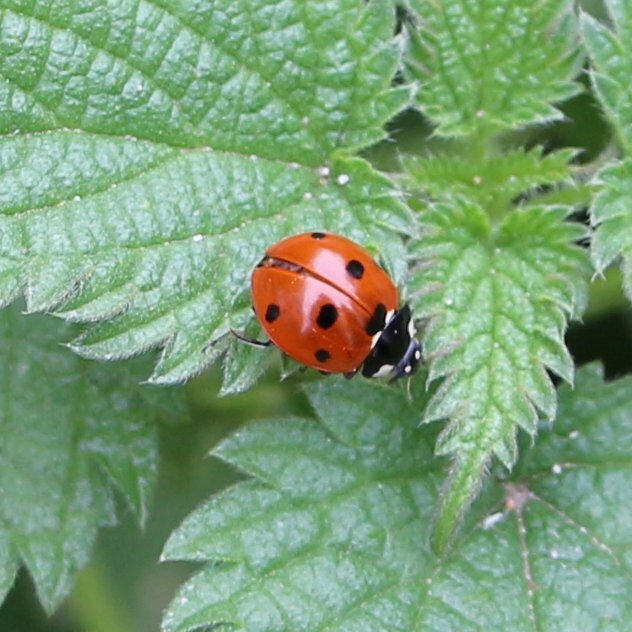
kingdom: Animalia
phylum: Arthropoda
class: Insecta
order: Coleoptera
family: Coccinellidae
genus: Coccinella
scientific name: Coccinella septempunctata
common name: Sevenspotted lady beetle
